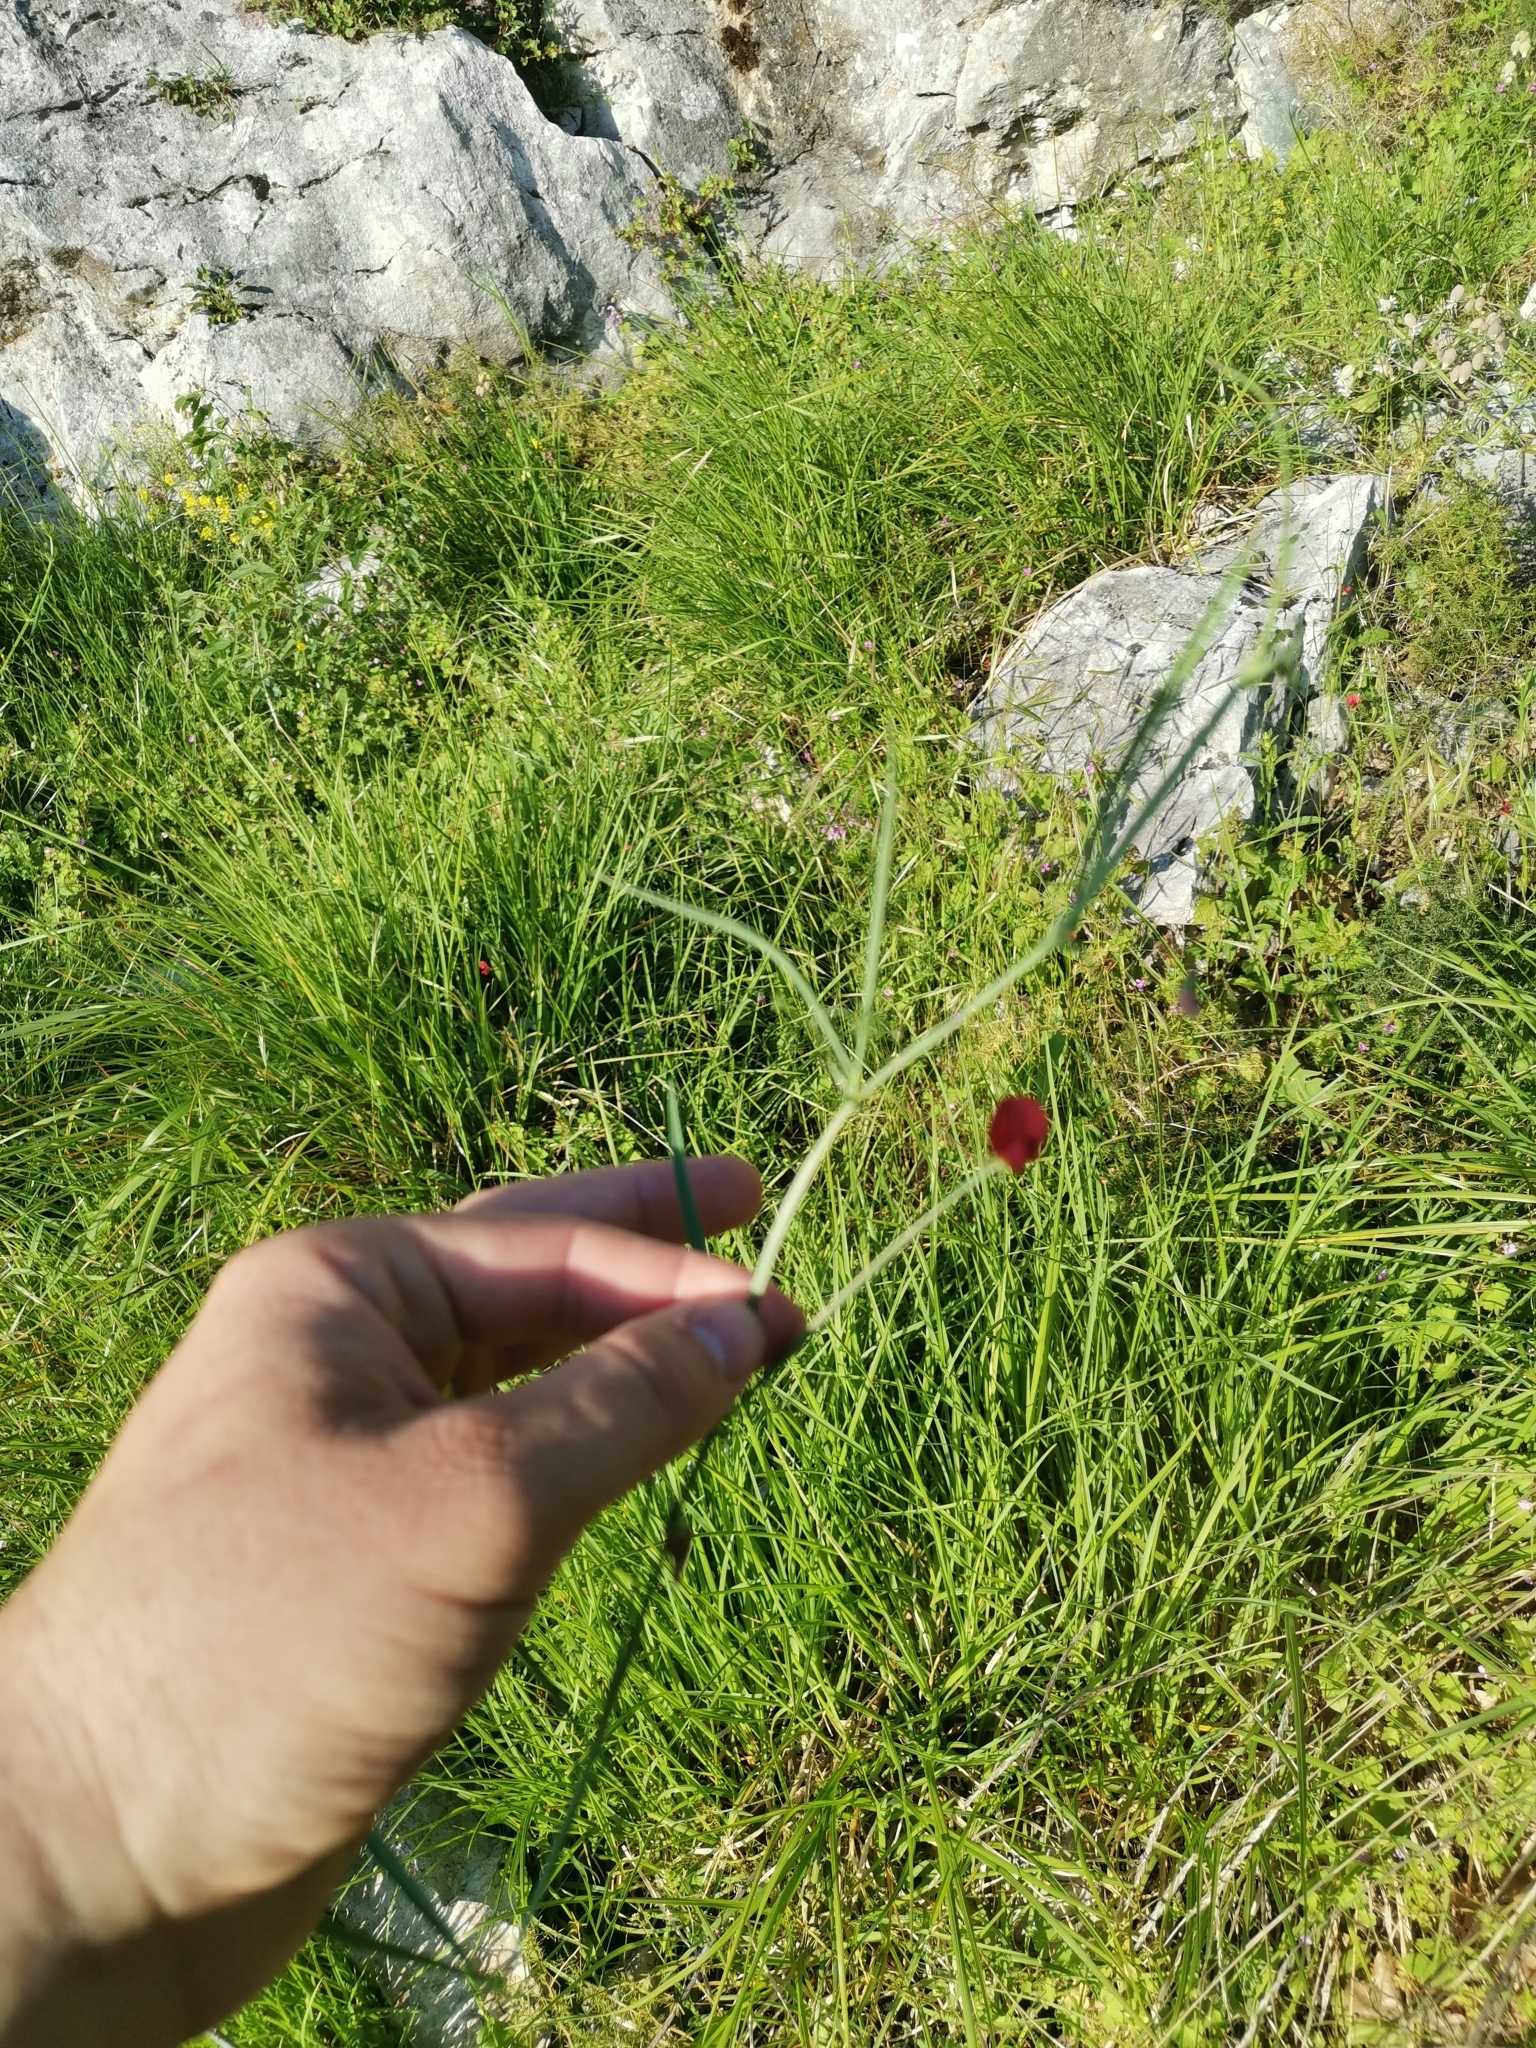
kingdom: Plantae
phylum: Tracheophyta
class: Magnoliopsida
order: Fabales
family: Fabaceae
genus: Lathyrus
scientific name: Lathyrus setifolius
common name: Brown vetchling
